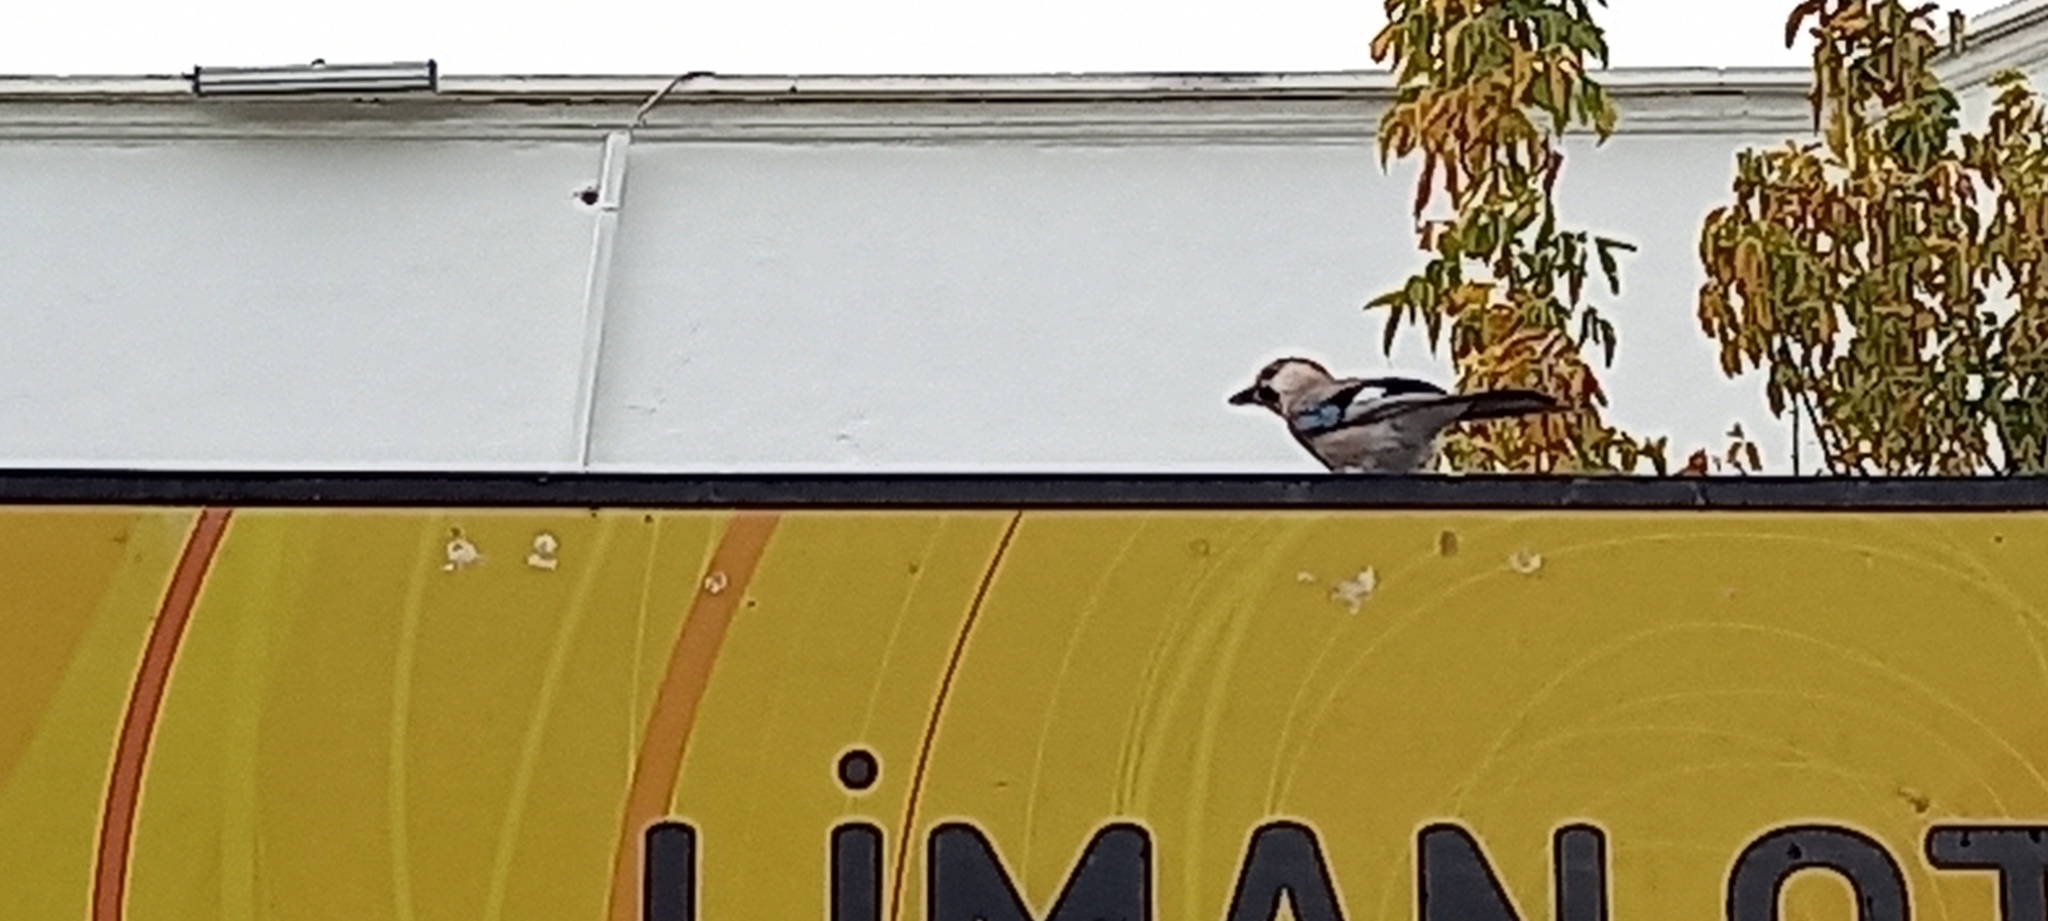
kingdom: Animalia
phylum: Chordata
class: Aves
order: Passeriformes
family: Corvidae
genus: Garrulus
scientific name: Garrulus glandarius
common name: Eurasian jay
